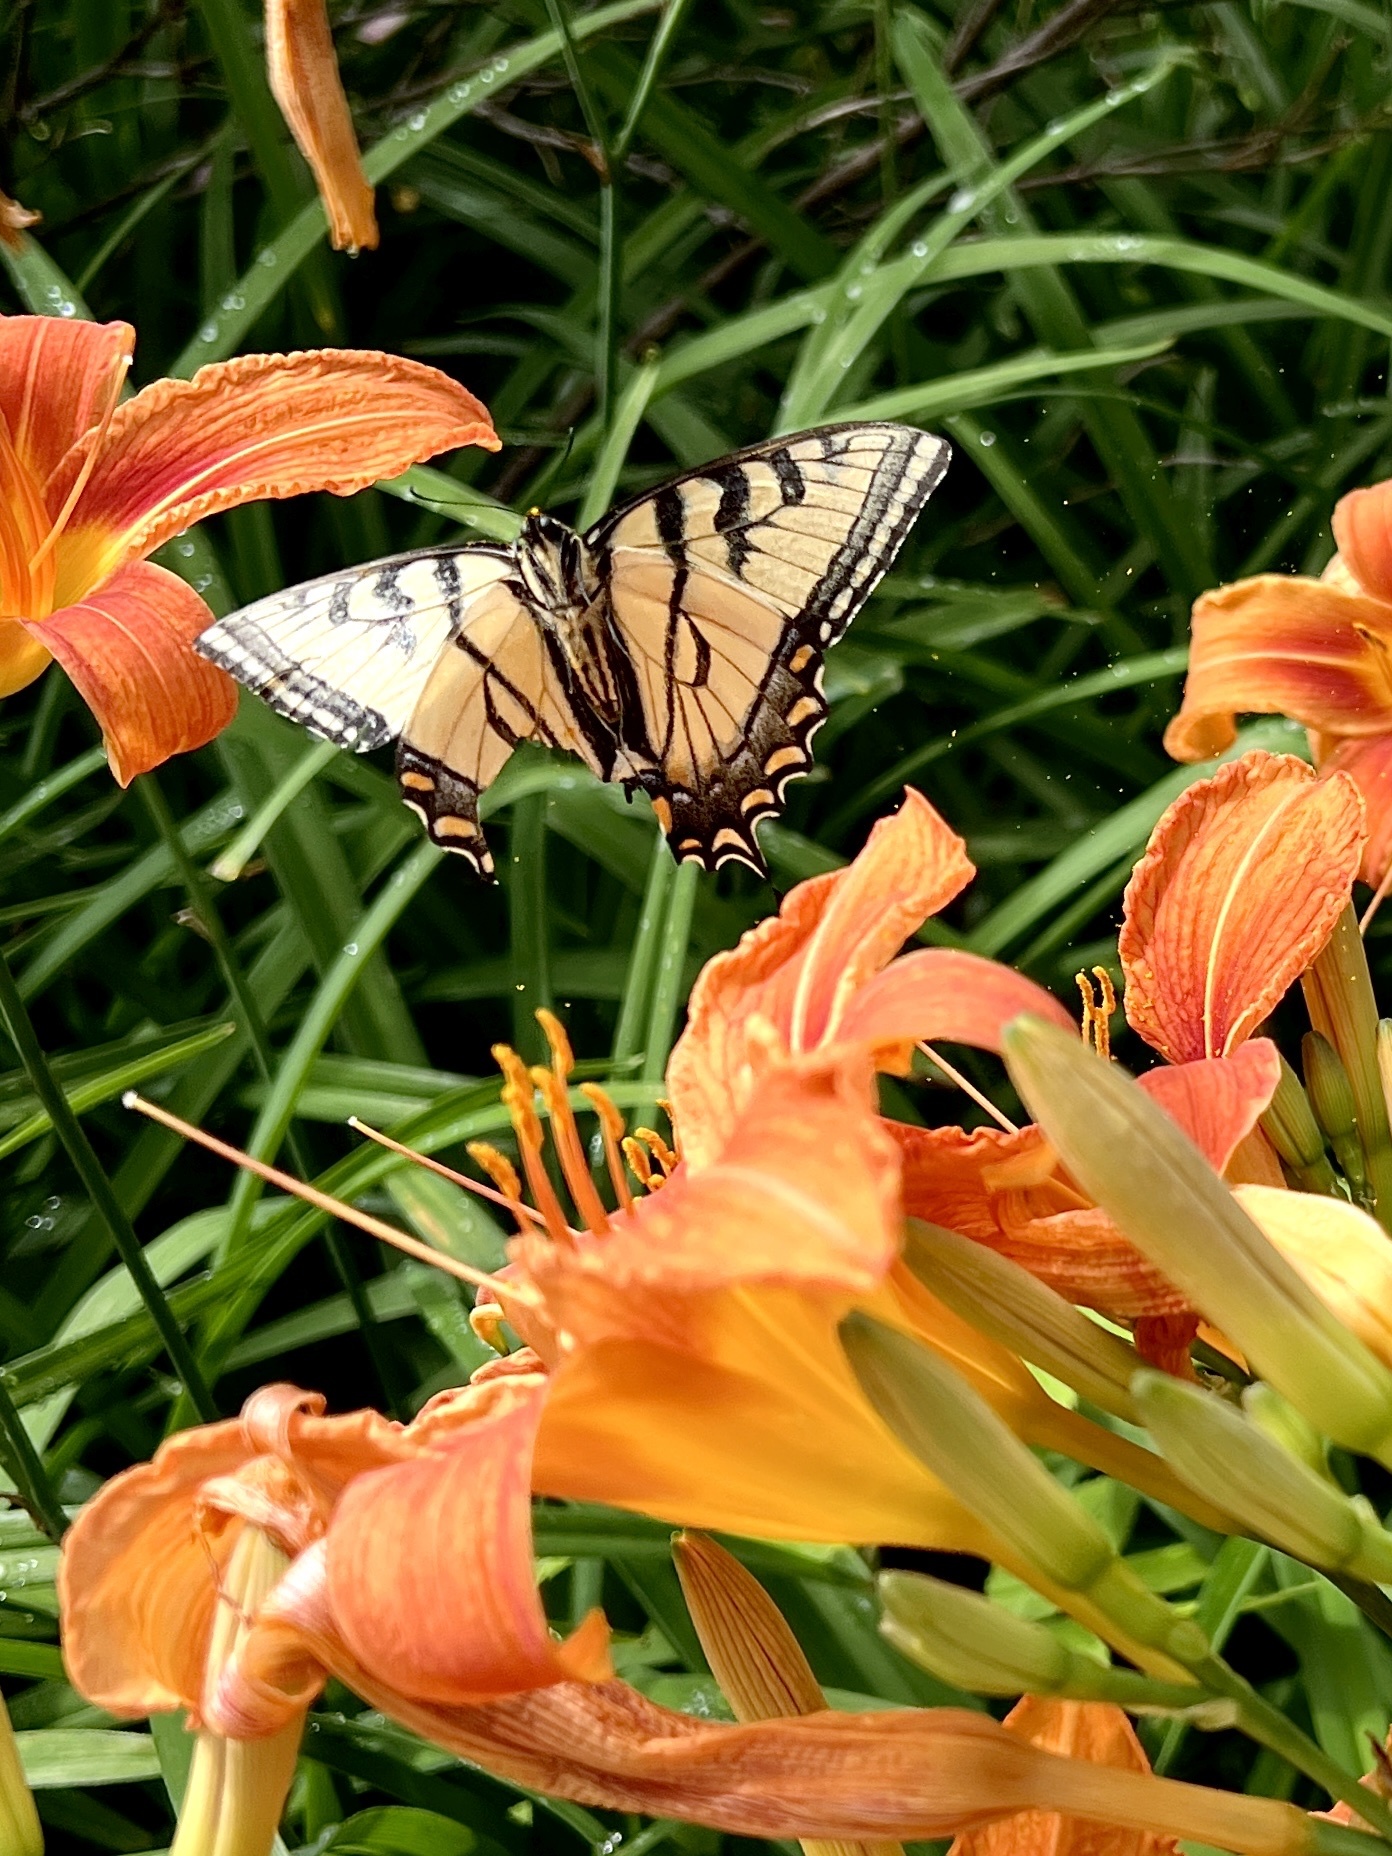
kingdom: Animalia
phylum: Arthropoda
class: Insecta
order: Lepidoptera
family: Papilionidae
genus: Papilio
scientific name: Papilio canadensis
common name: Canadian tiger swallowtail
